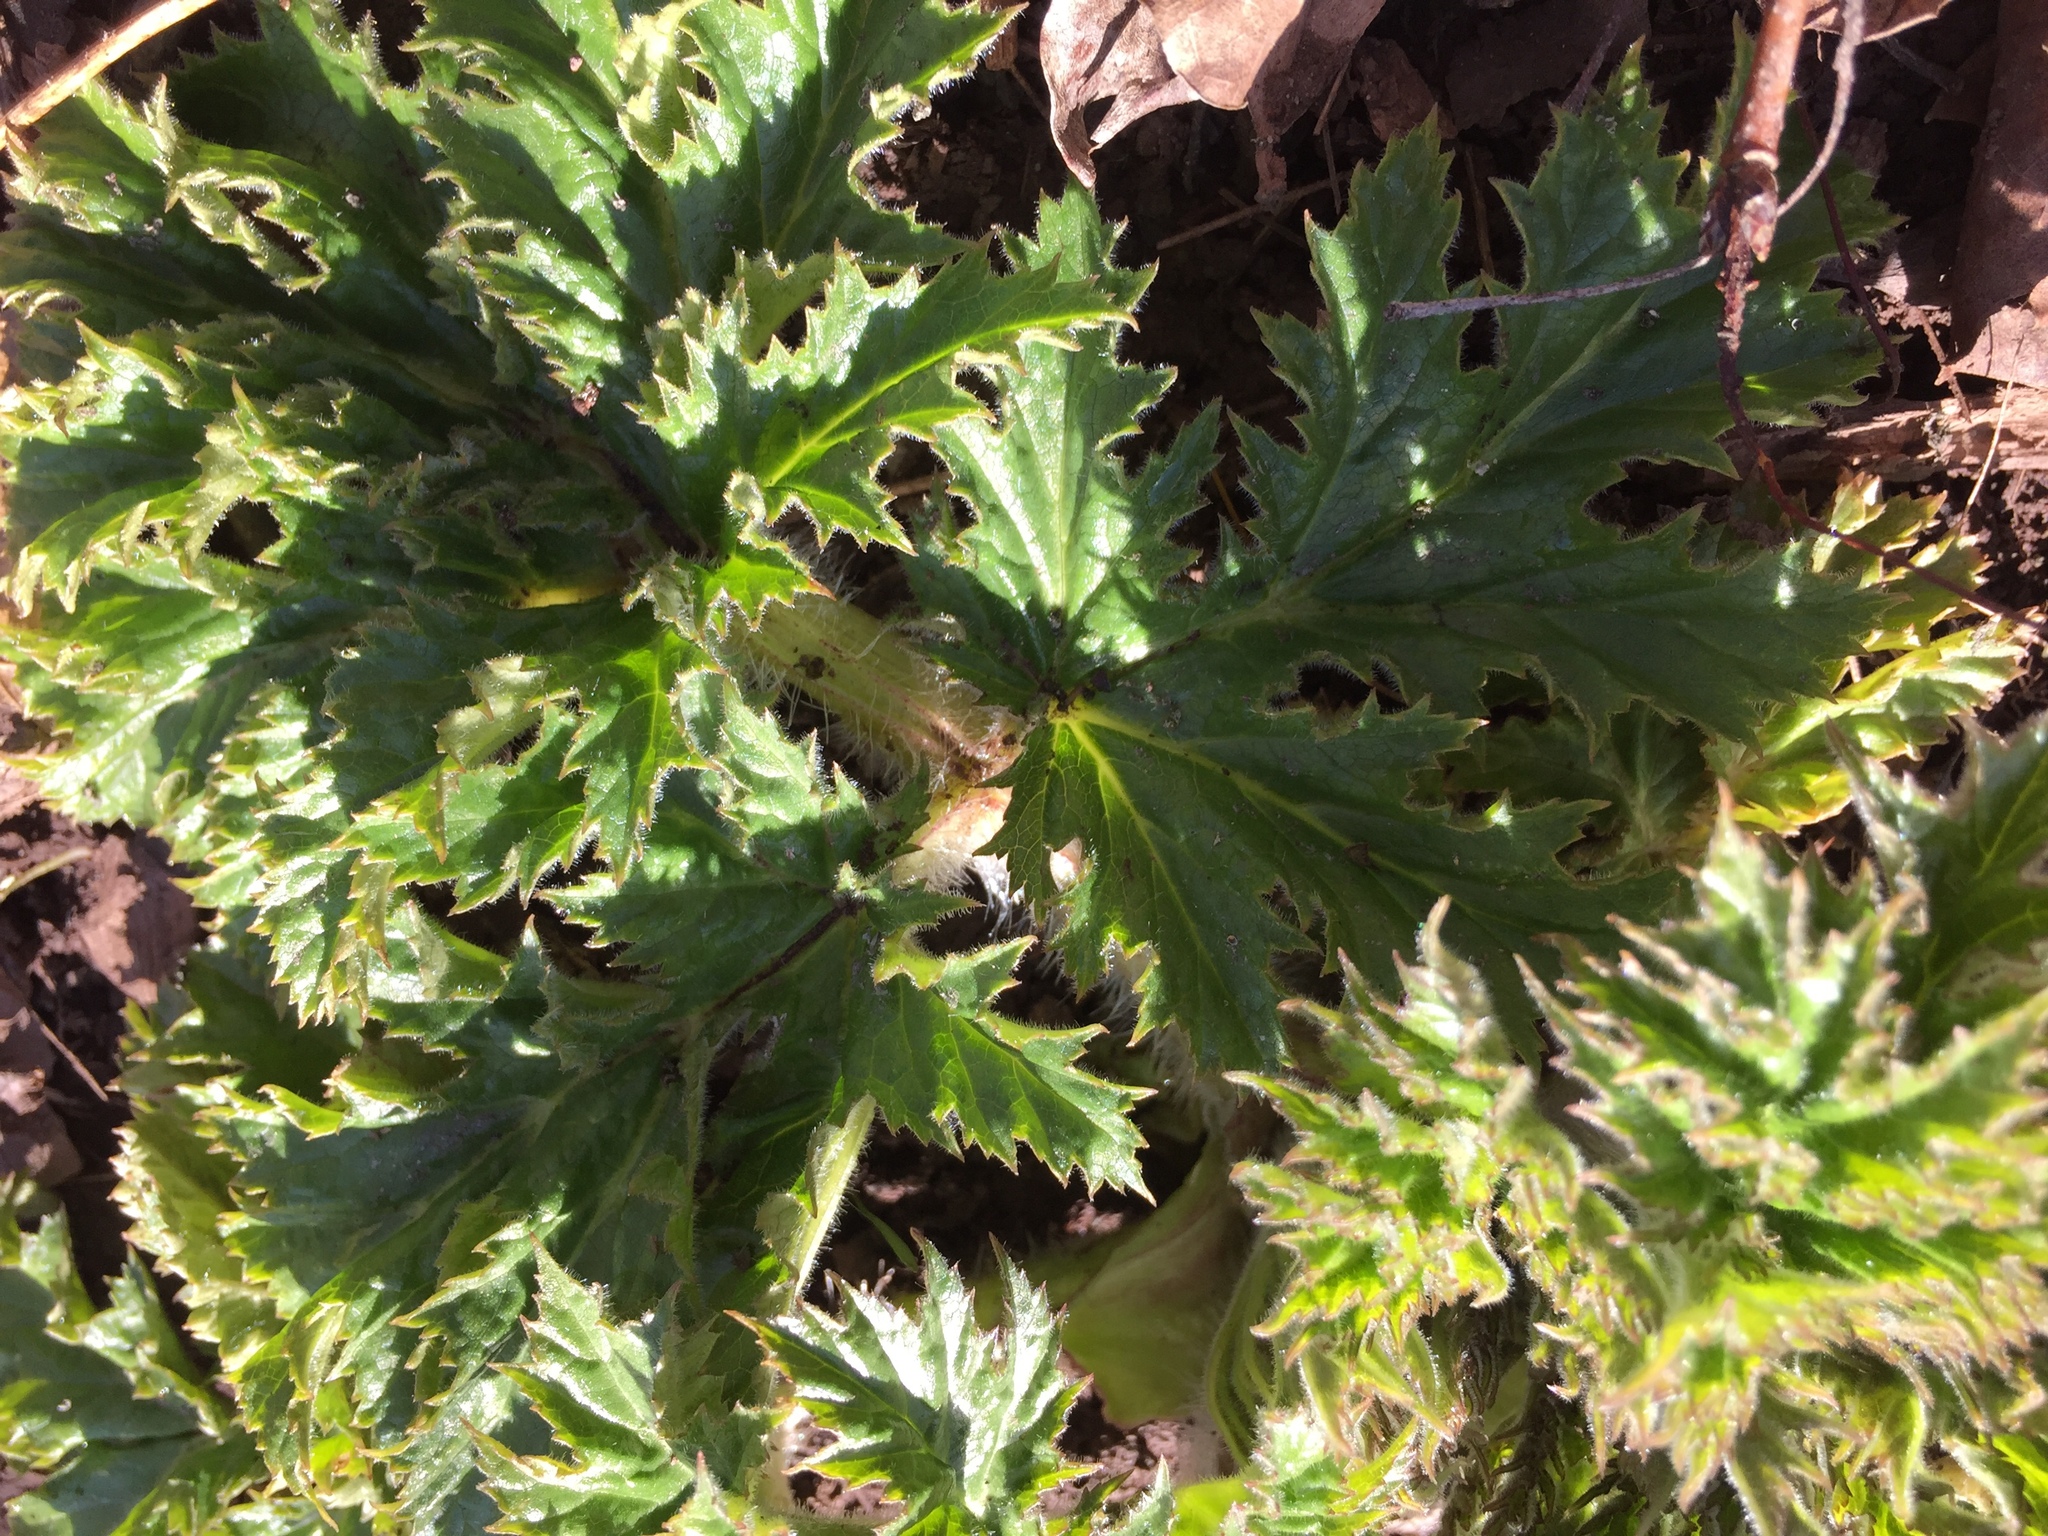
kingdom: Plantae
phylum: Tracheophyta
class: Magnoliopsida
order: Apiales
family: Apiaceae
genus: Heracleum
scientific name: Heracleum mantegazzianum
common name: Giant hogweed
